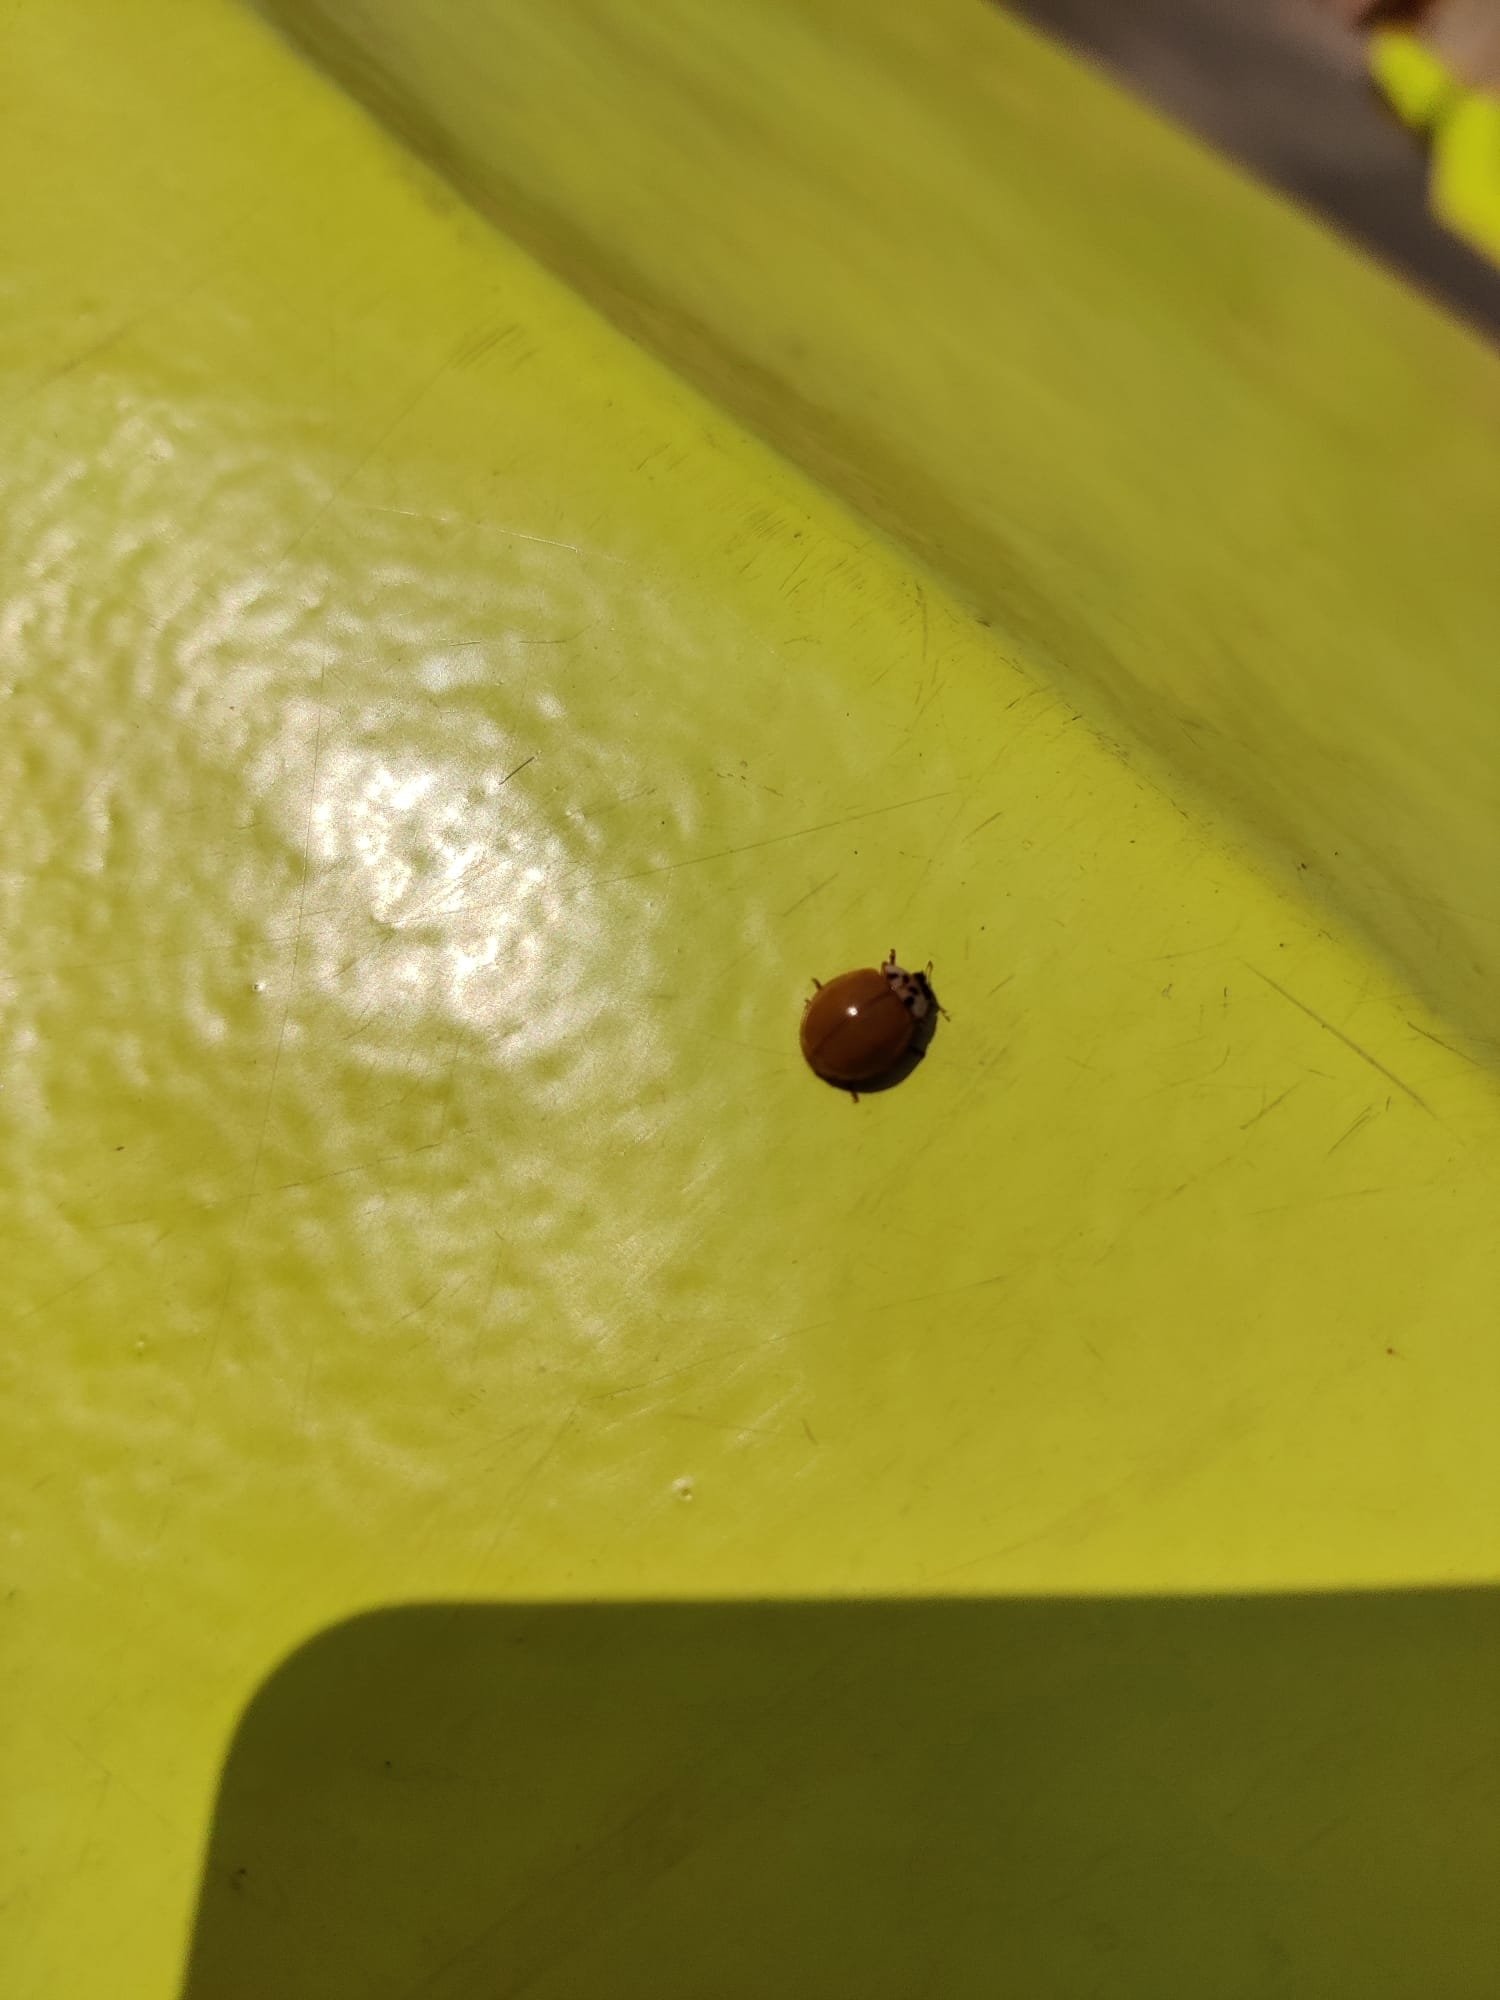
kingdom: Animalia
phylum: Arthropoda
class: Insecta
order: Coleoptera
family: Coccinellidae
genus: Harmonia
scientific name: Harmonia axyridis
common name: Harlequin ladybird
